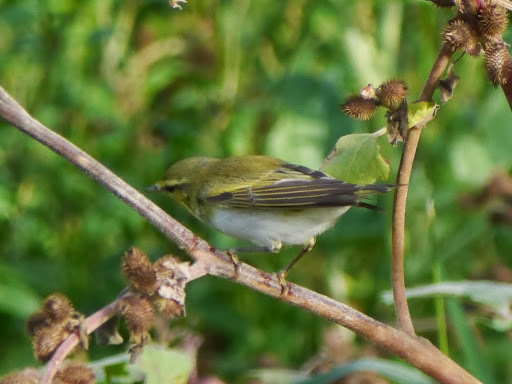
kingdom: Animalia
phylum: Chordata
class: Aves
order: Passeriformes
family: Phylloscopidae
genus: Phylloscopus
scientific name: Phylloscopus sibillatrix
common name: Wood warbler
